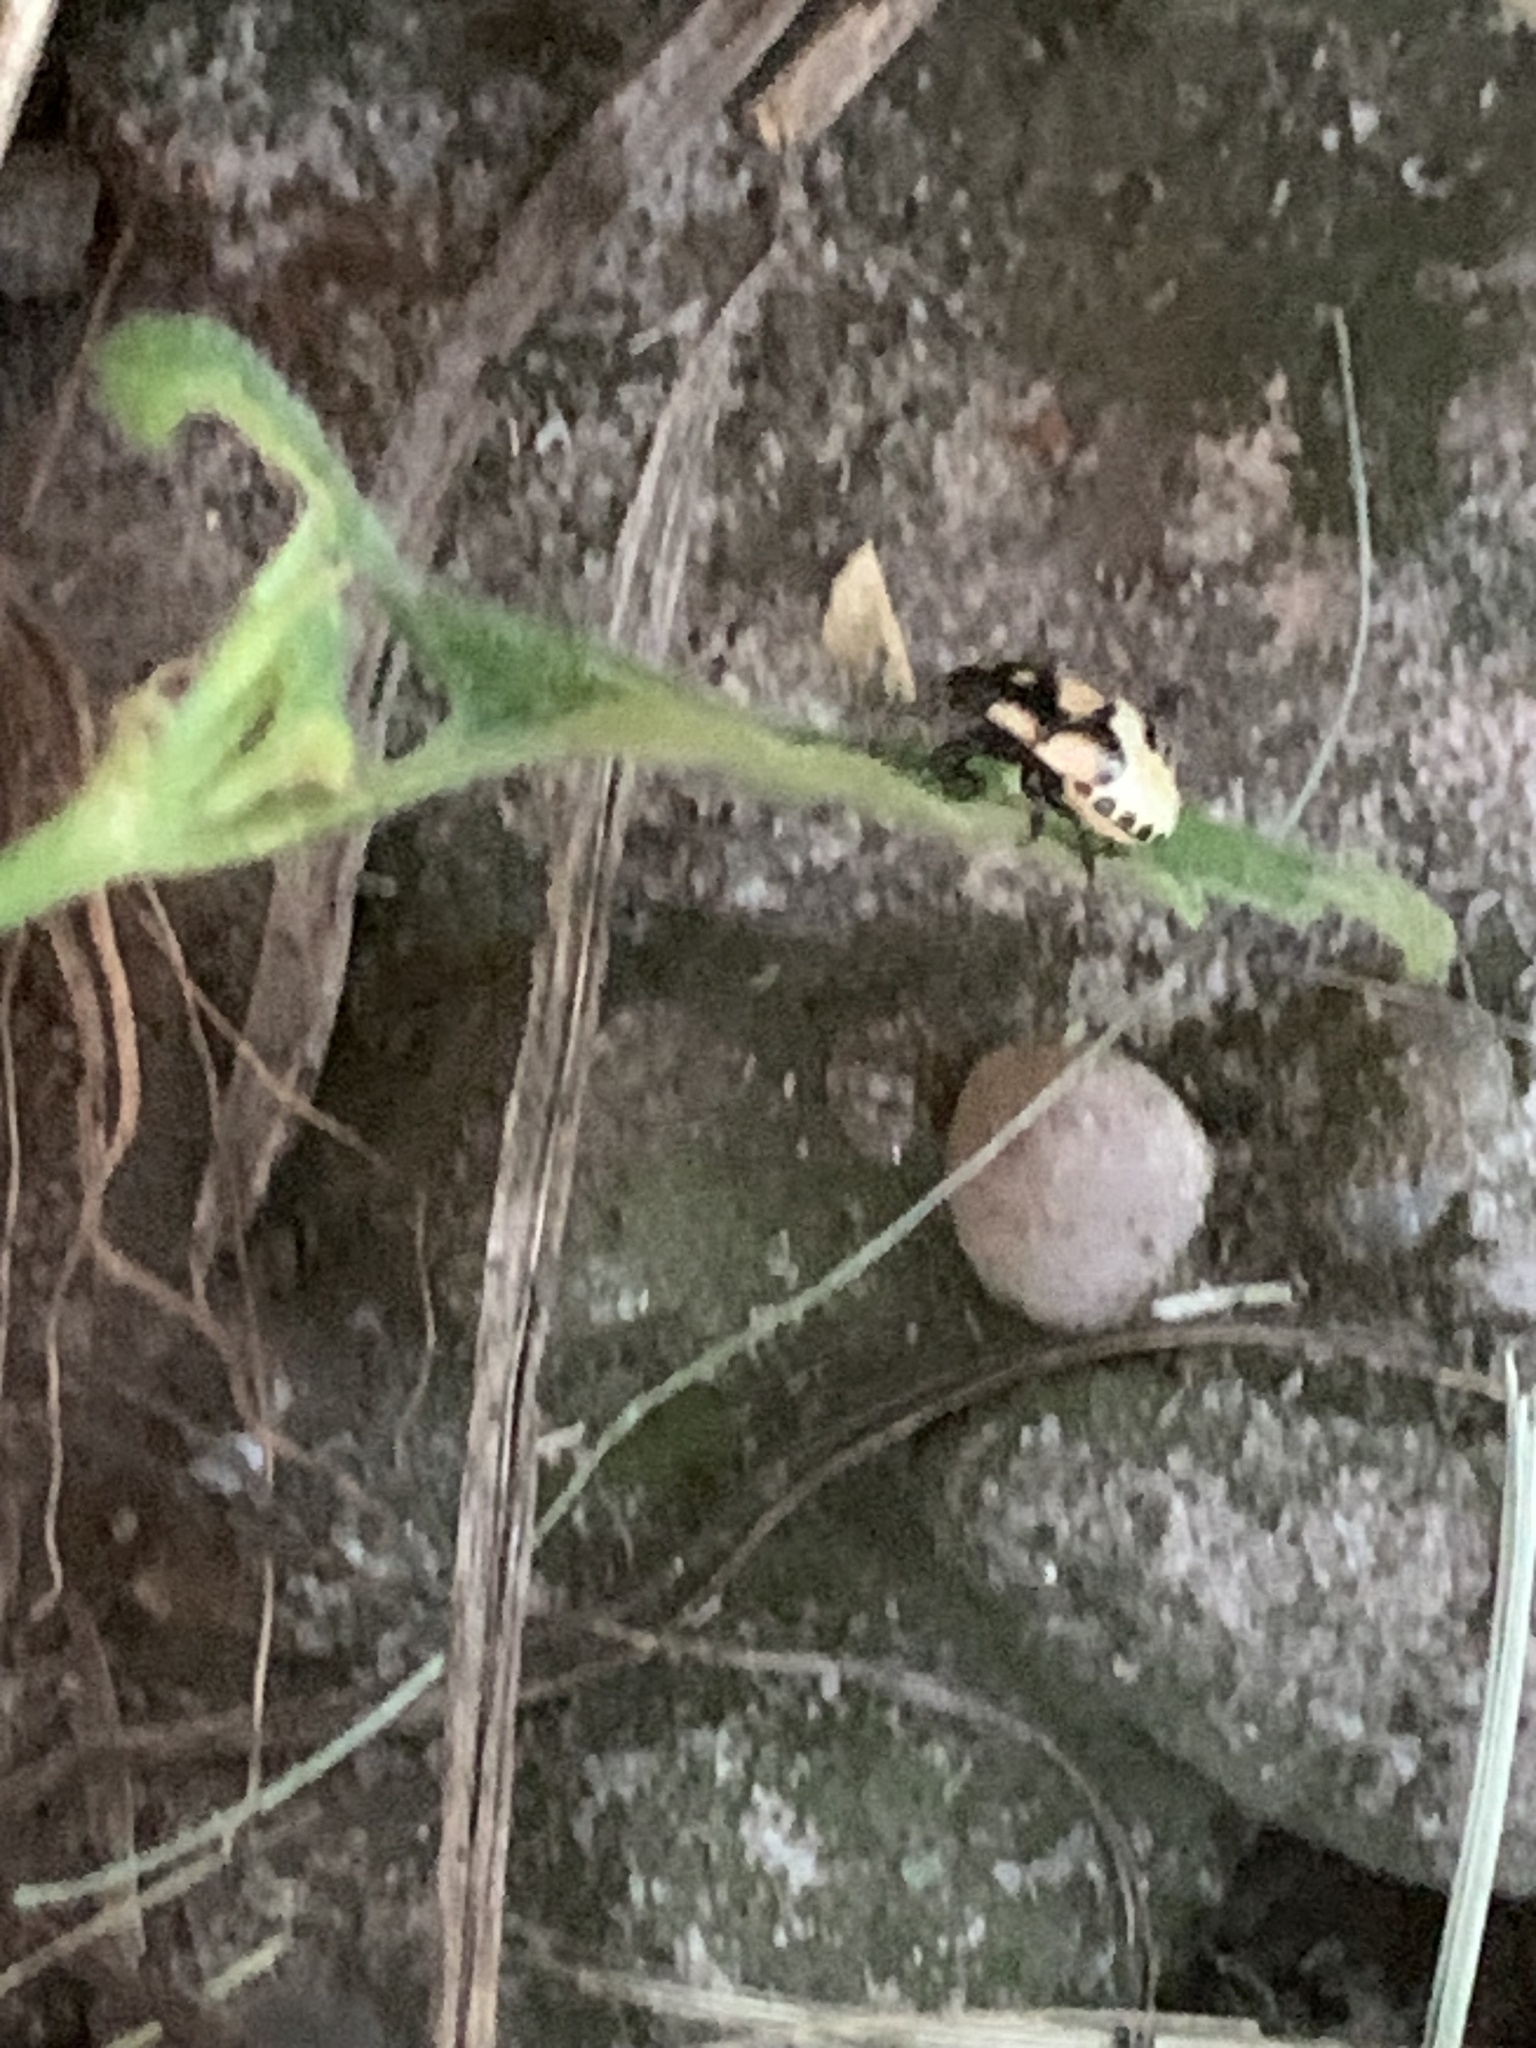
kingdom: Animalia
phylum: Arthropoda
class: Insecta
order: Hemiptera
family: Cydnidae
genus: Tritomegas
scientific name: Tritomegas bicolor
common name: Pied shieldbug
